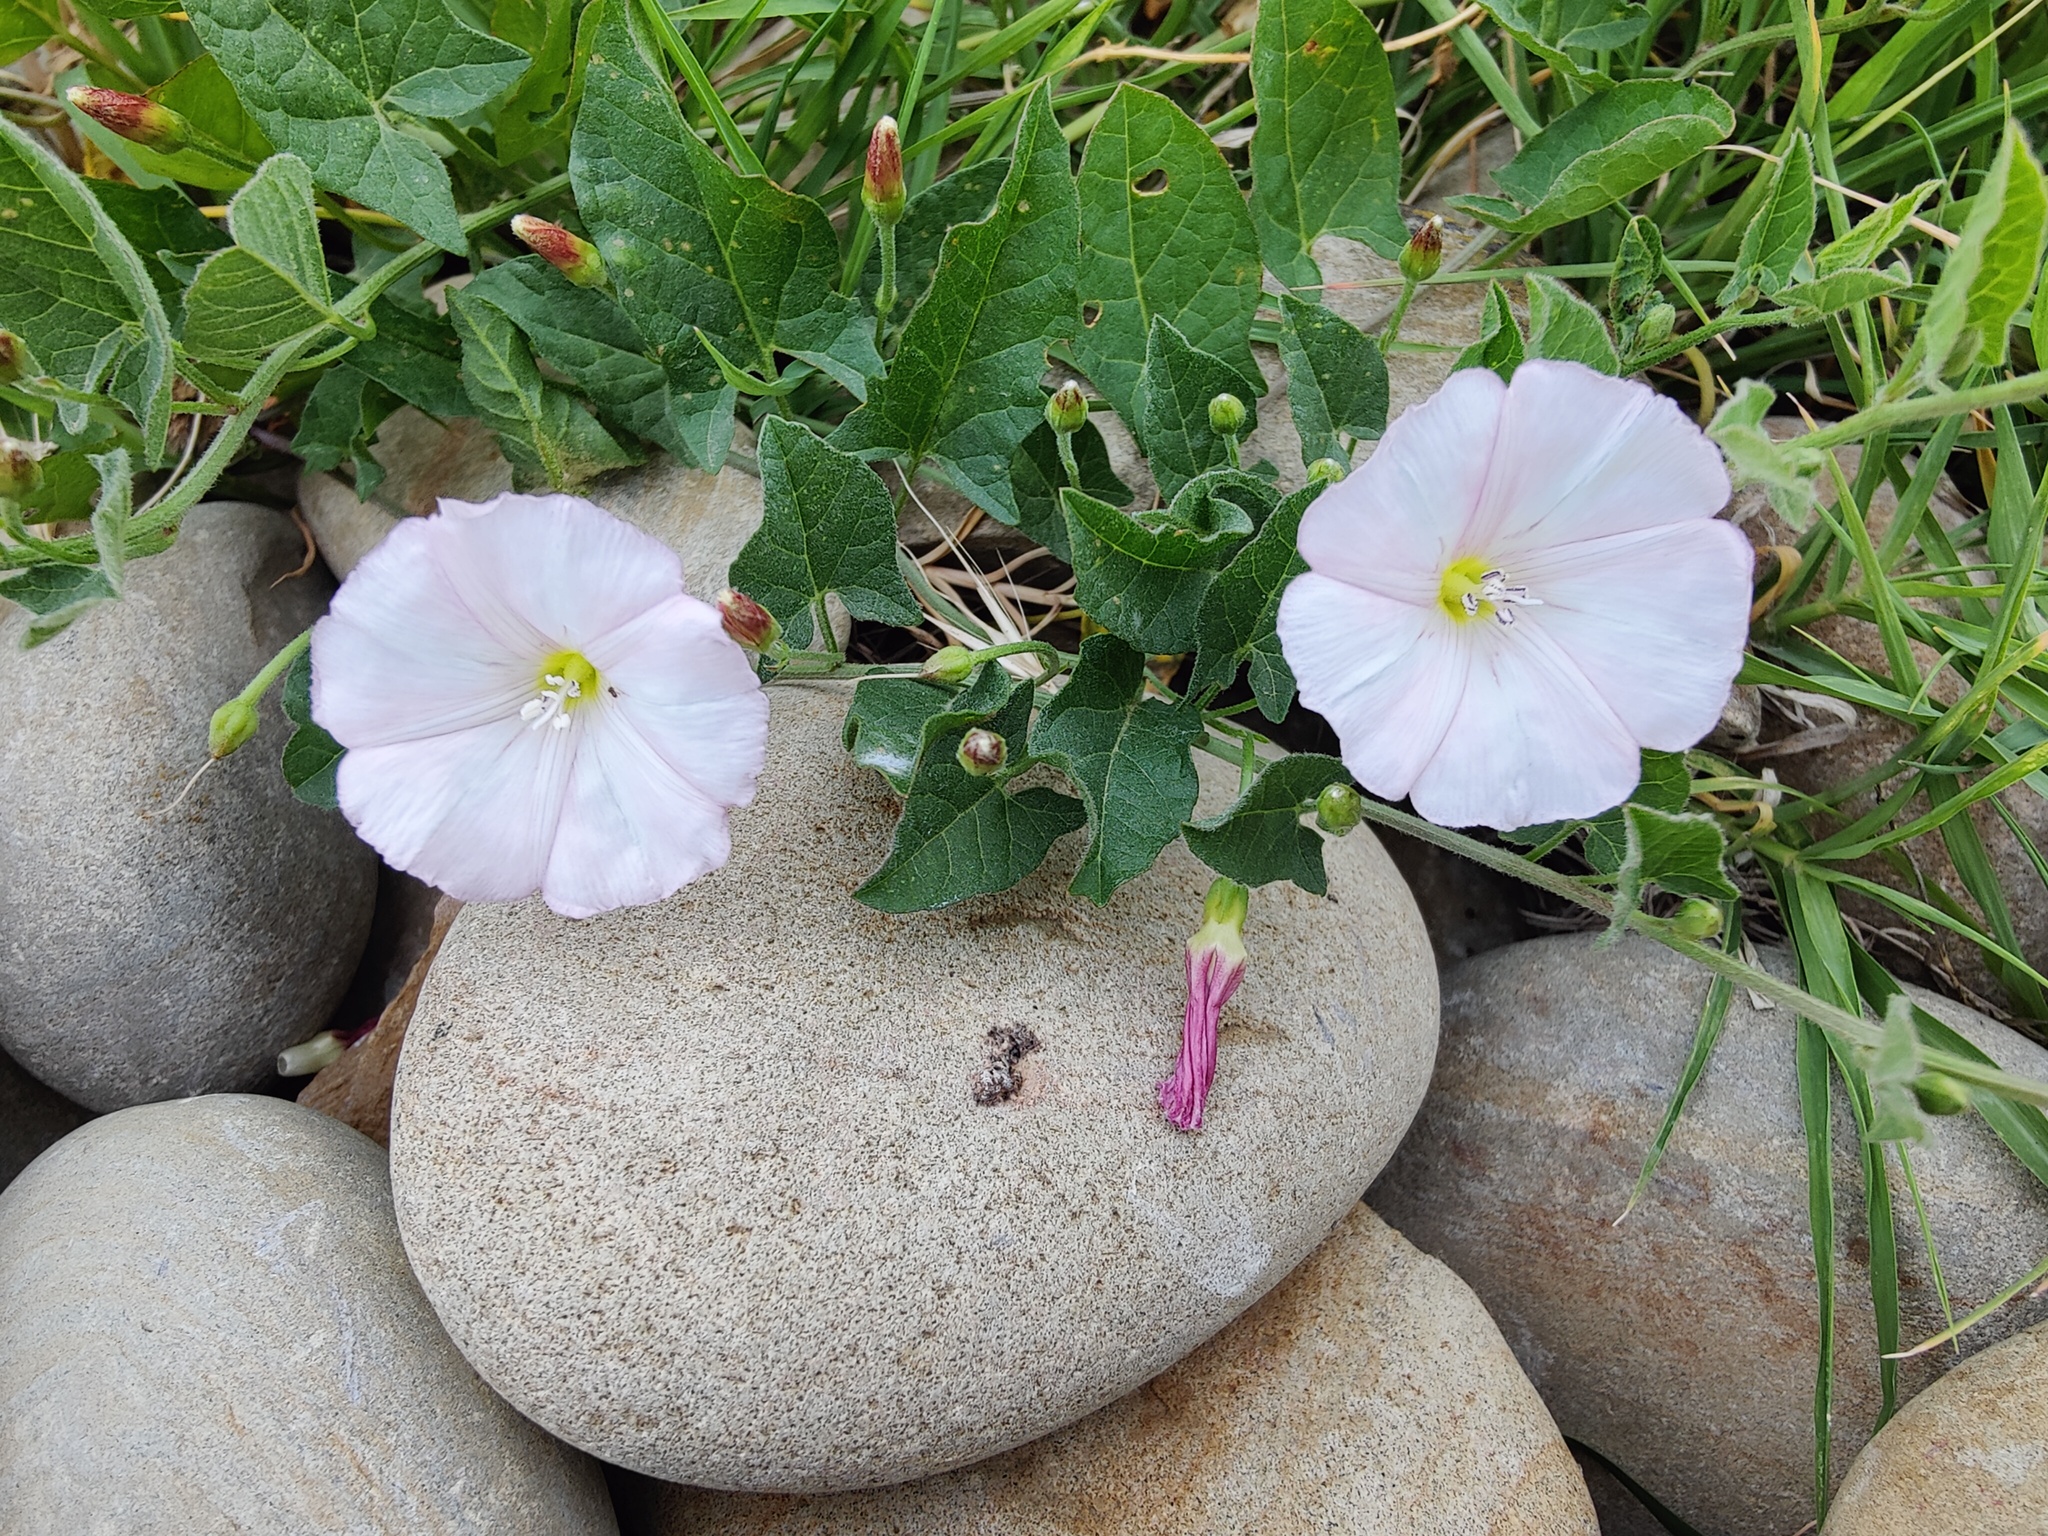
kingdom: Plantae
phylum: Tracheophyta
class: Magnoliopsida
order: Solanales
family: Convolvulaceae
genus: Convolvulus
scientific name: Convolvulus arvensis
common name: Field bindweed
